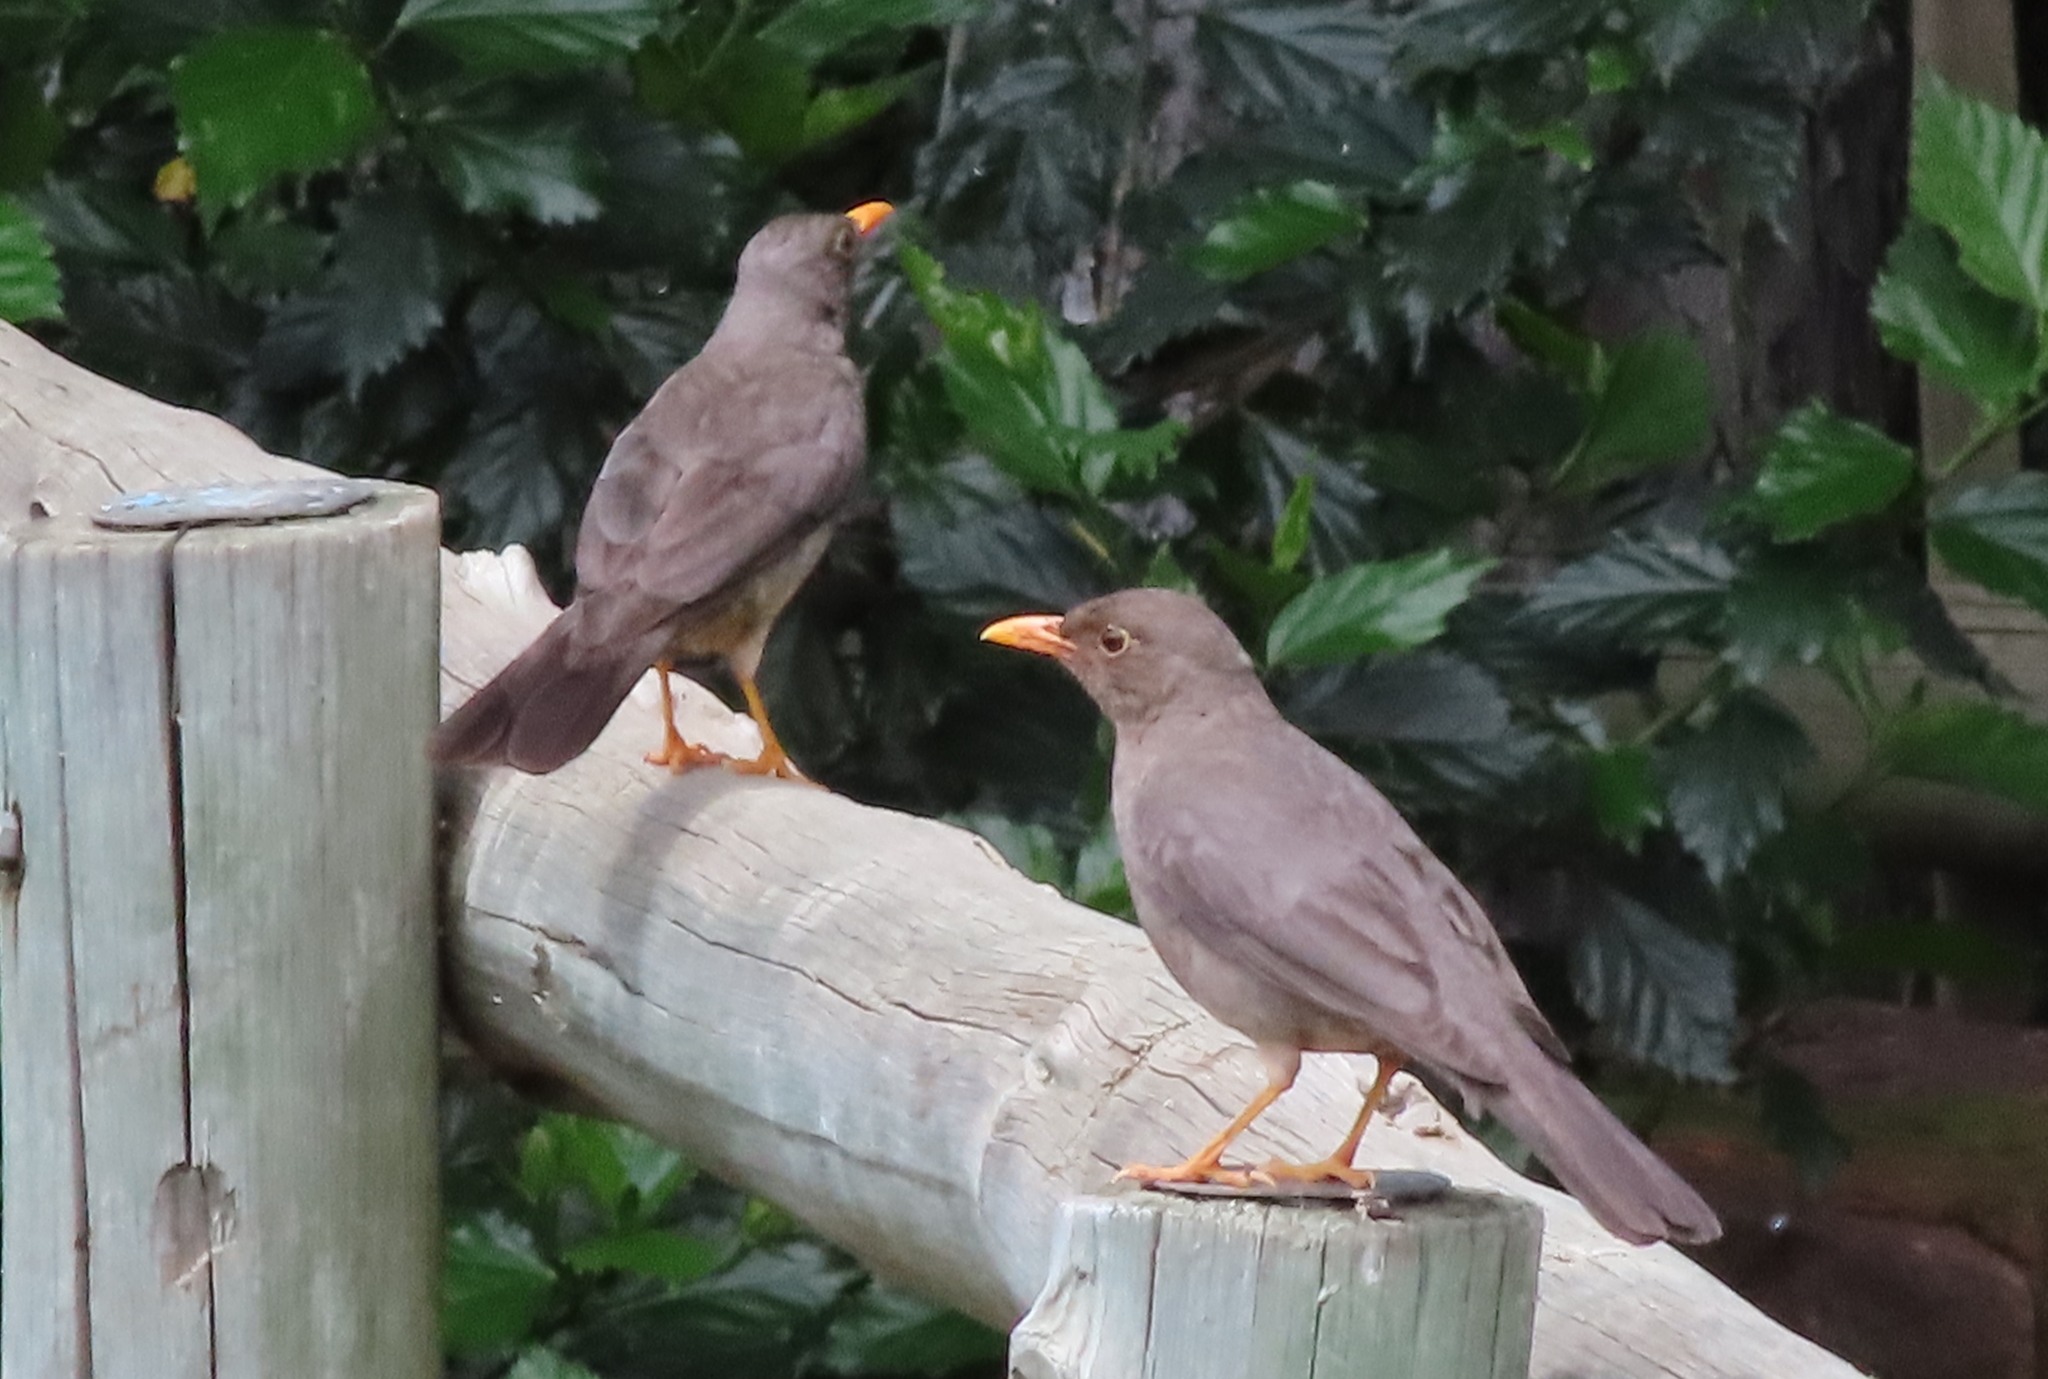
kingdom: Animalia
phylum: Chordata
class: Aves
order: Passeriformes
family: Turdidae
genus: Turdus
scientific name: Turdus smithi
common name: Karoo thrush
